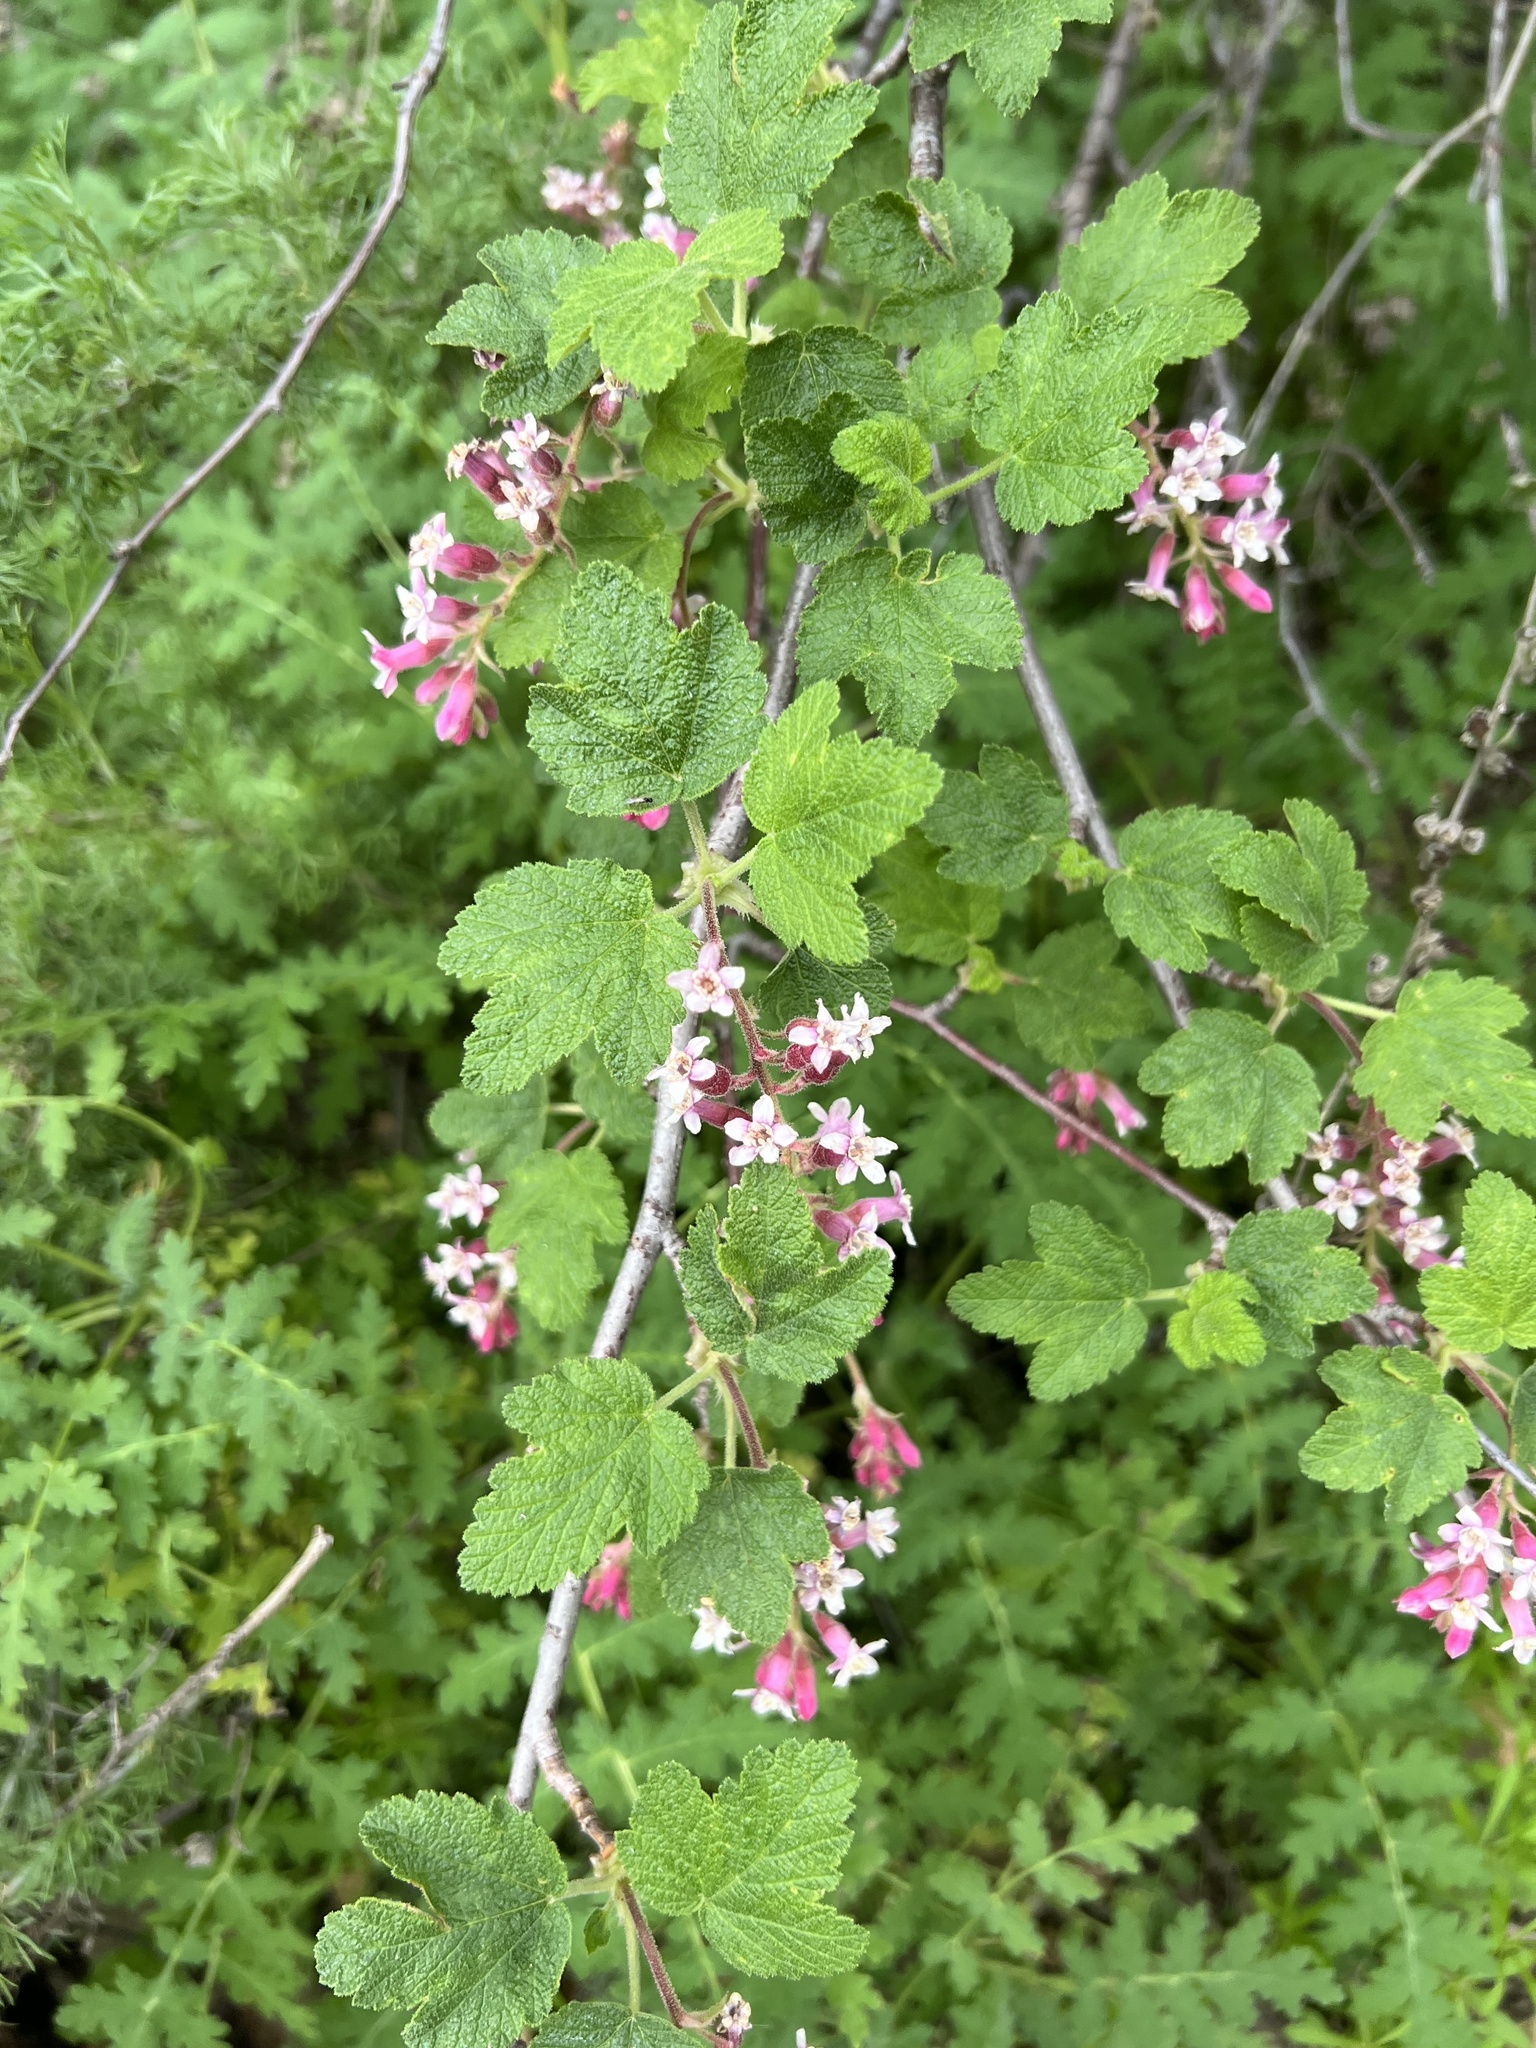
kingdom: Plantae
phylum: Tracheophyta
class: Magnoliopsida
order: Saxifragales
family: Grossulariaceae
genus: Ribes
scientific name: Ribes malvaceum
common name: Chaparral currant
